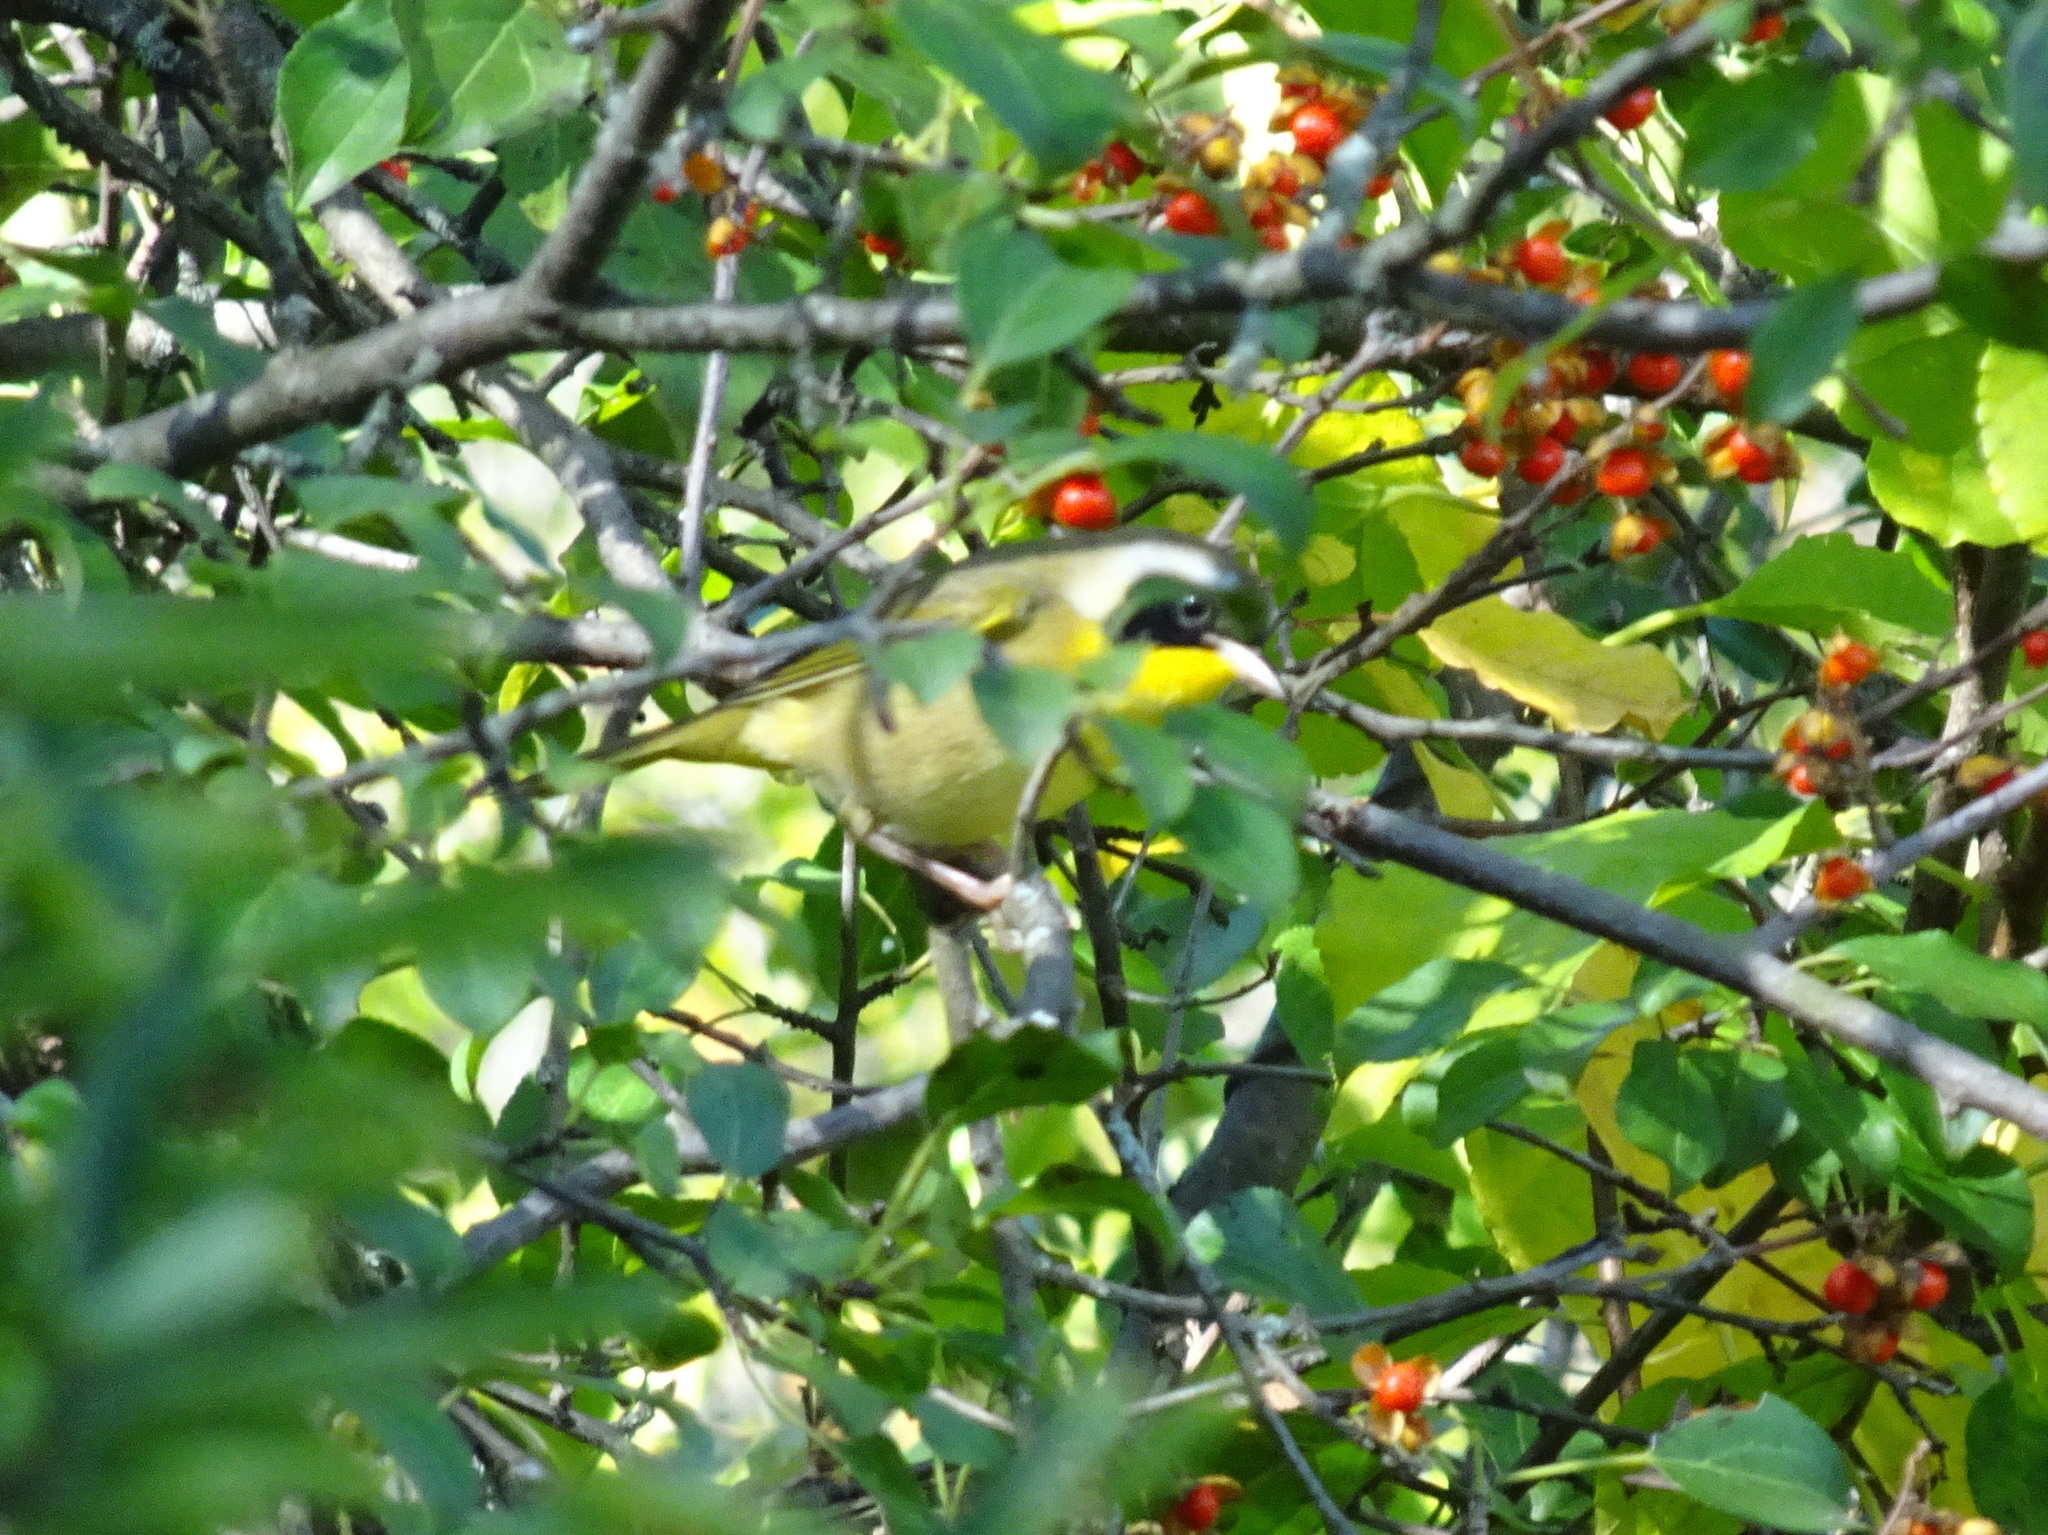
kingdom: Animalia
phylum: Chordata
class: Aves
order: Passeriformes
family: Parulidae
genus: Geothlypis
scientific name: Geothlypis trichas
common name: Common yellowthroat
